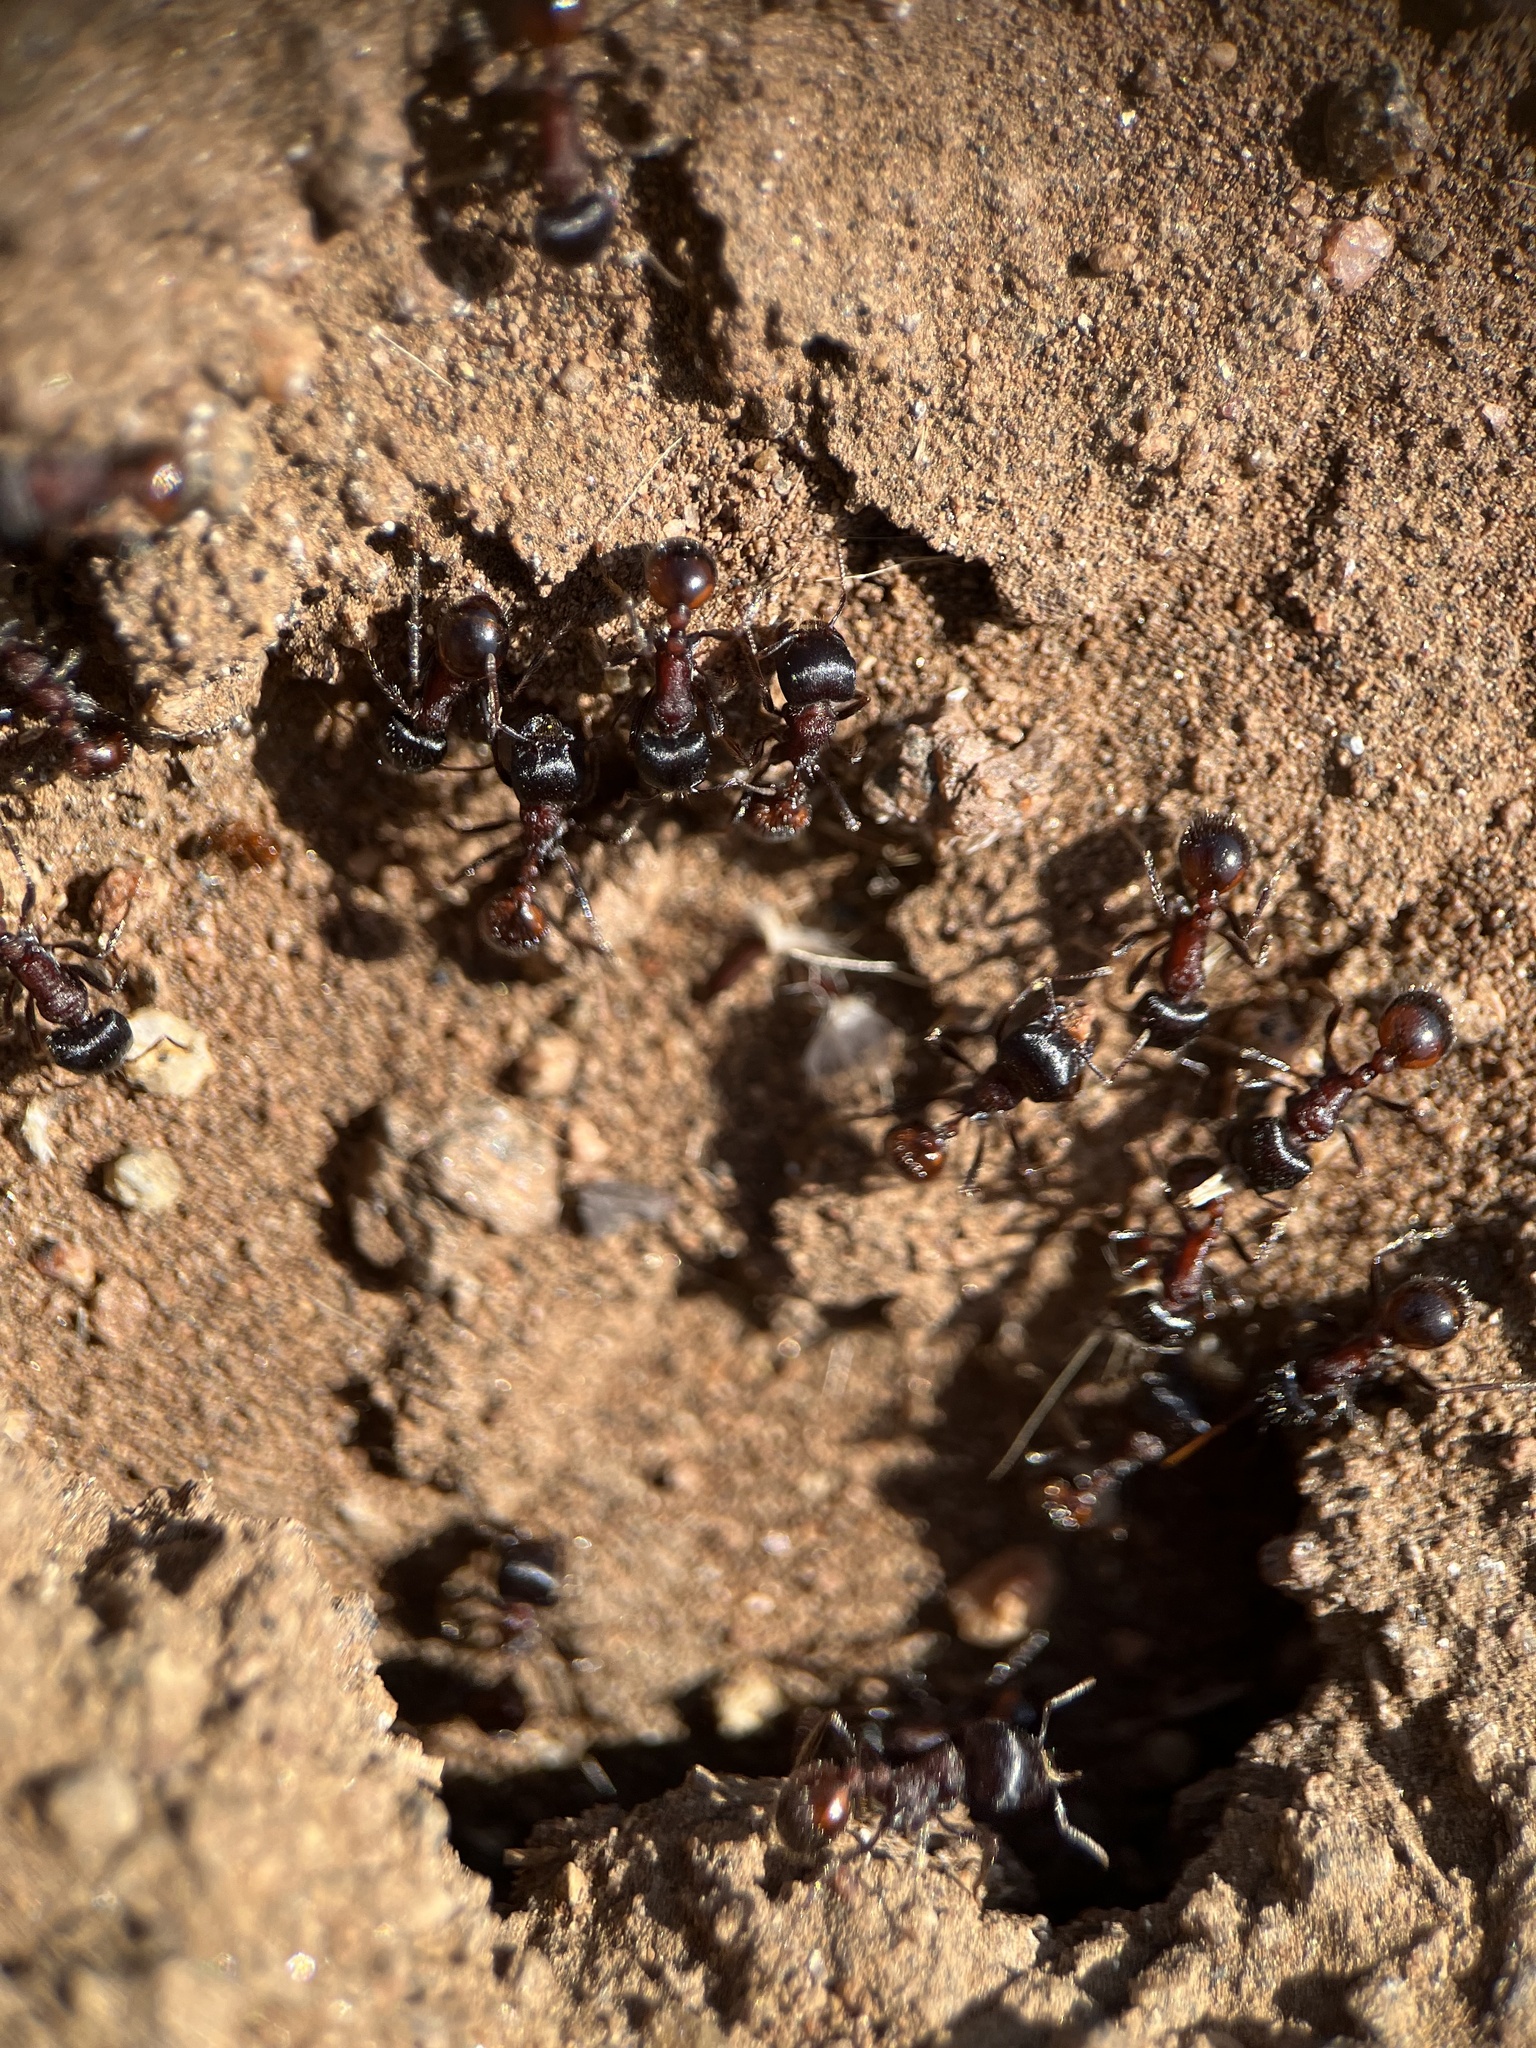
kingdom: Animalia
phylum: Arthropoda
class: Insecta
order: Hymenoptera
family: Formicidae
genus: Pogonomyrmex
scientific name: Pogonomyrmex rugosus
